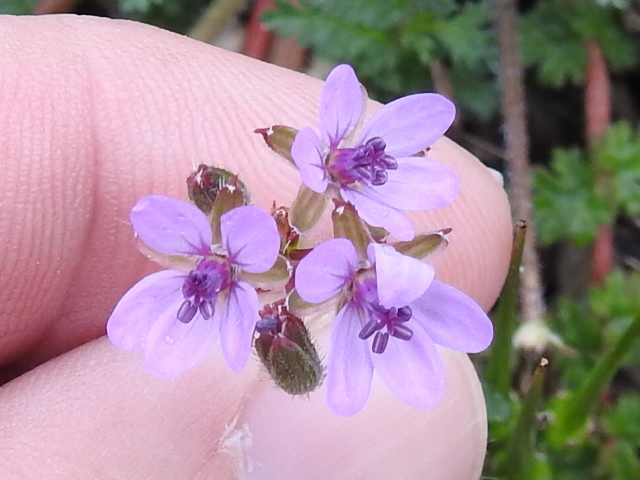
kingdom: Plantae
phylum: Tracheophyta
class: Magnoliopsida
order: Geraniales
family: Geraniaceae
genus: Erodium
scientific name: Erodium cicutarium
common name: Common stork's-bill
